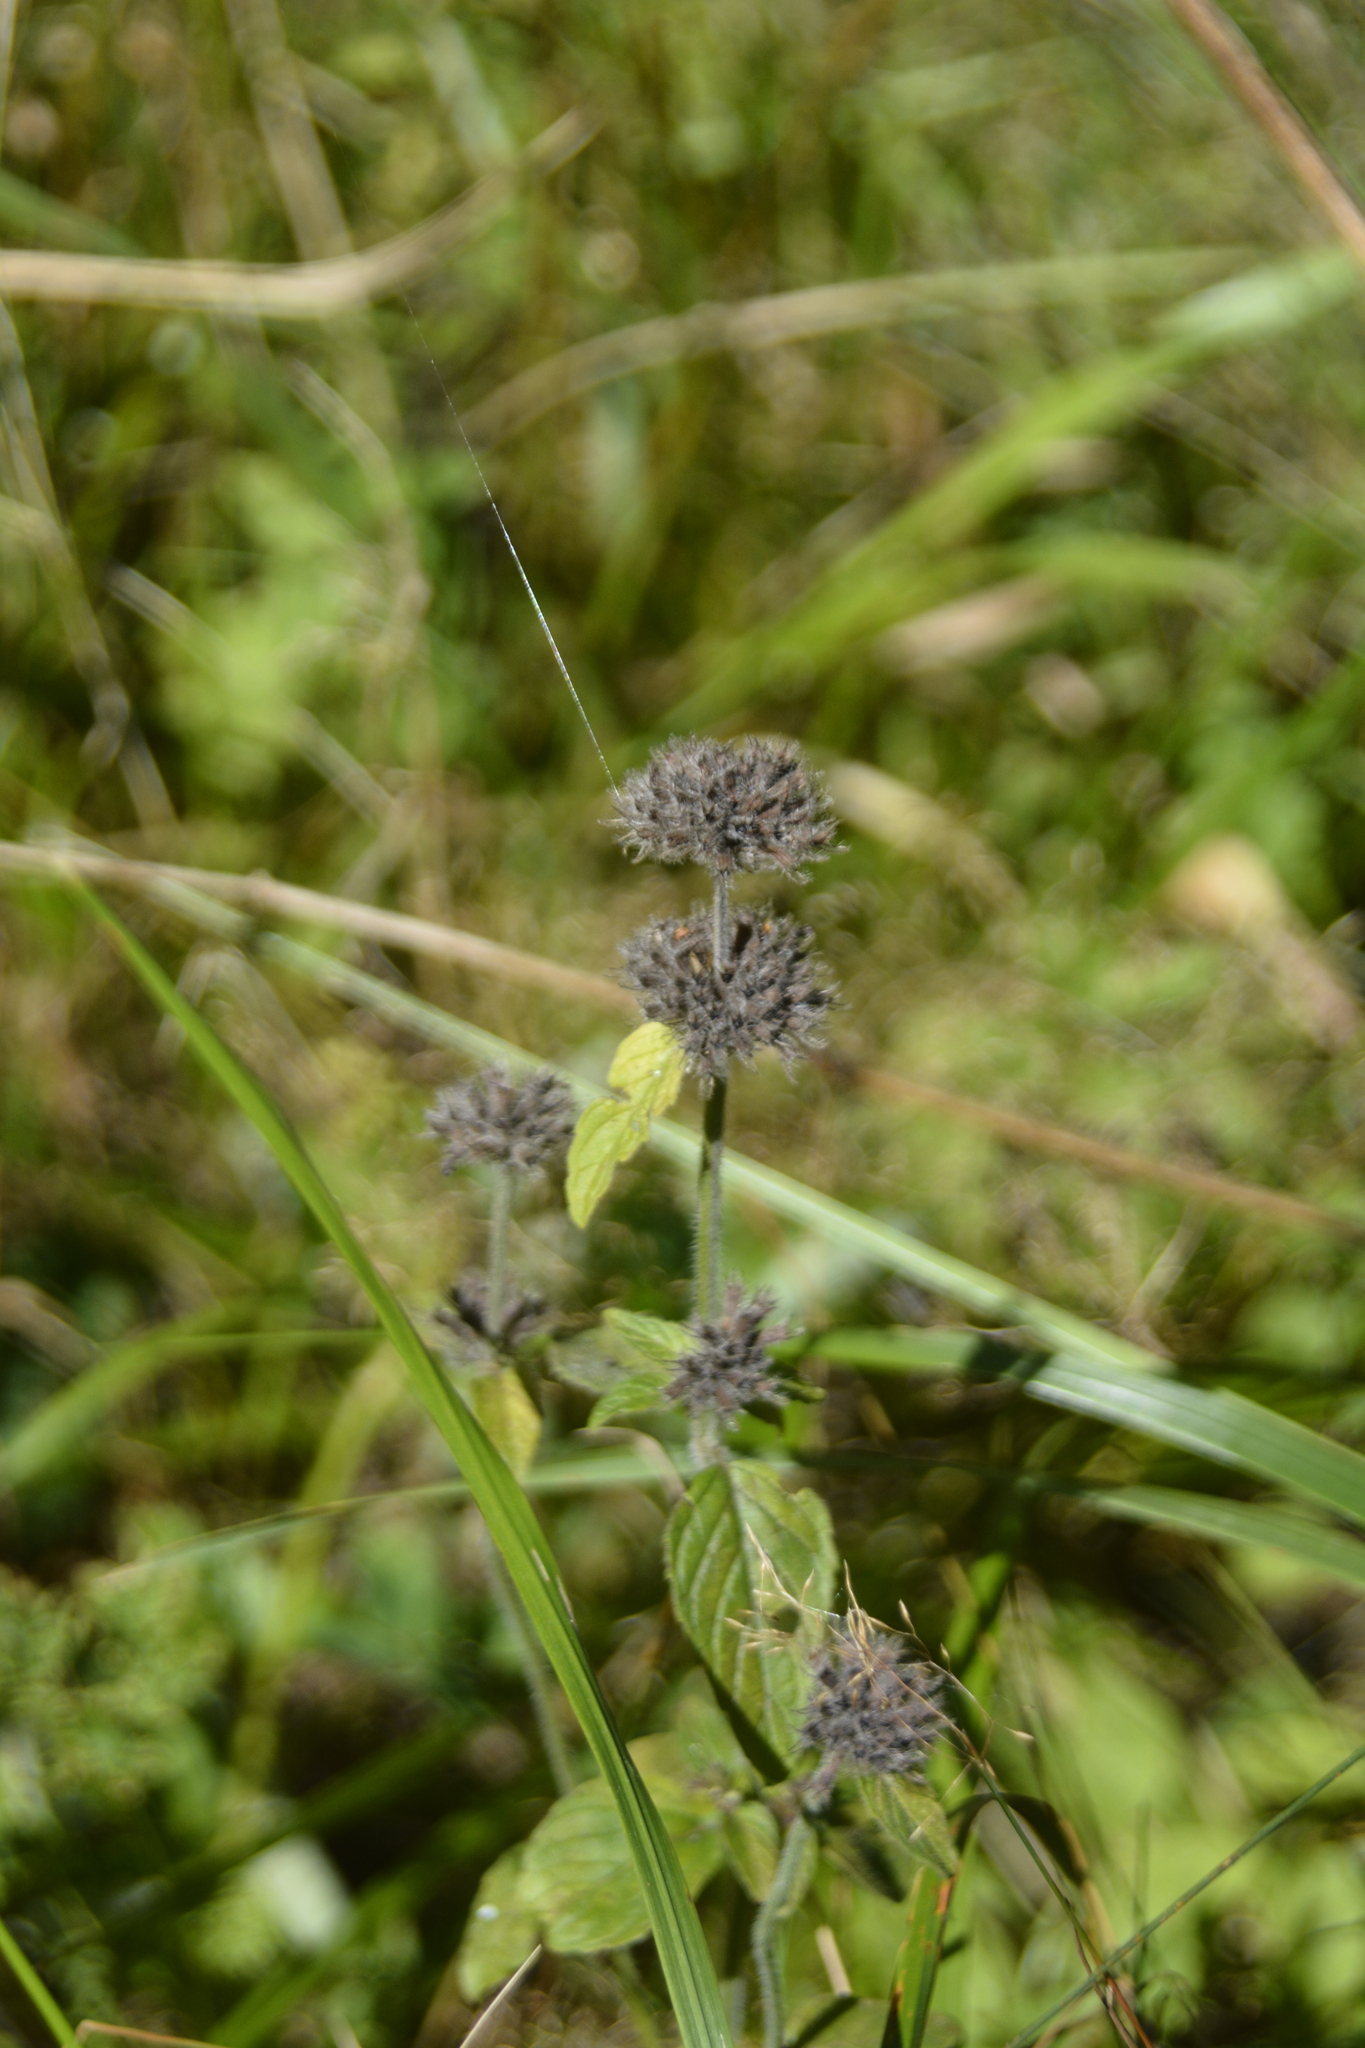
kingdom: Plantae
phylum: Tracheophyta
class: Magnoliopsida
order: Lamiales
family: Lamiaceae
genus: Clinopodium
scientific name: Clinopodium vulgare
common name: Wild basil
